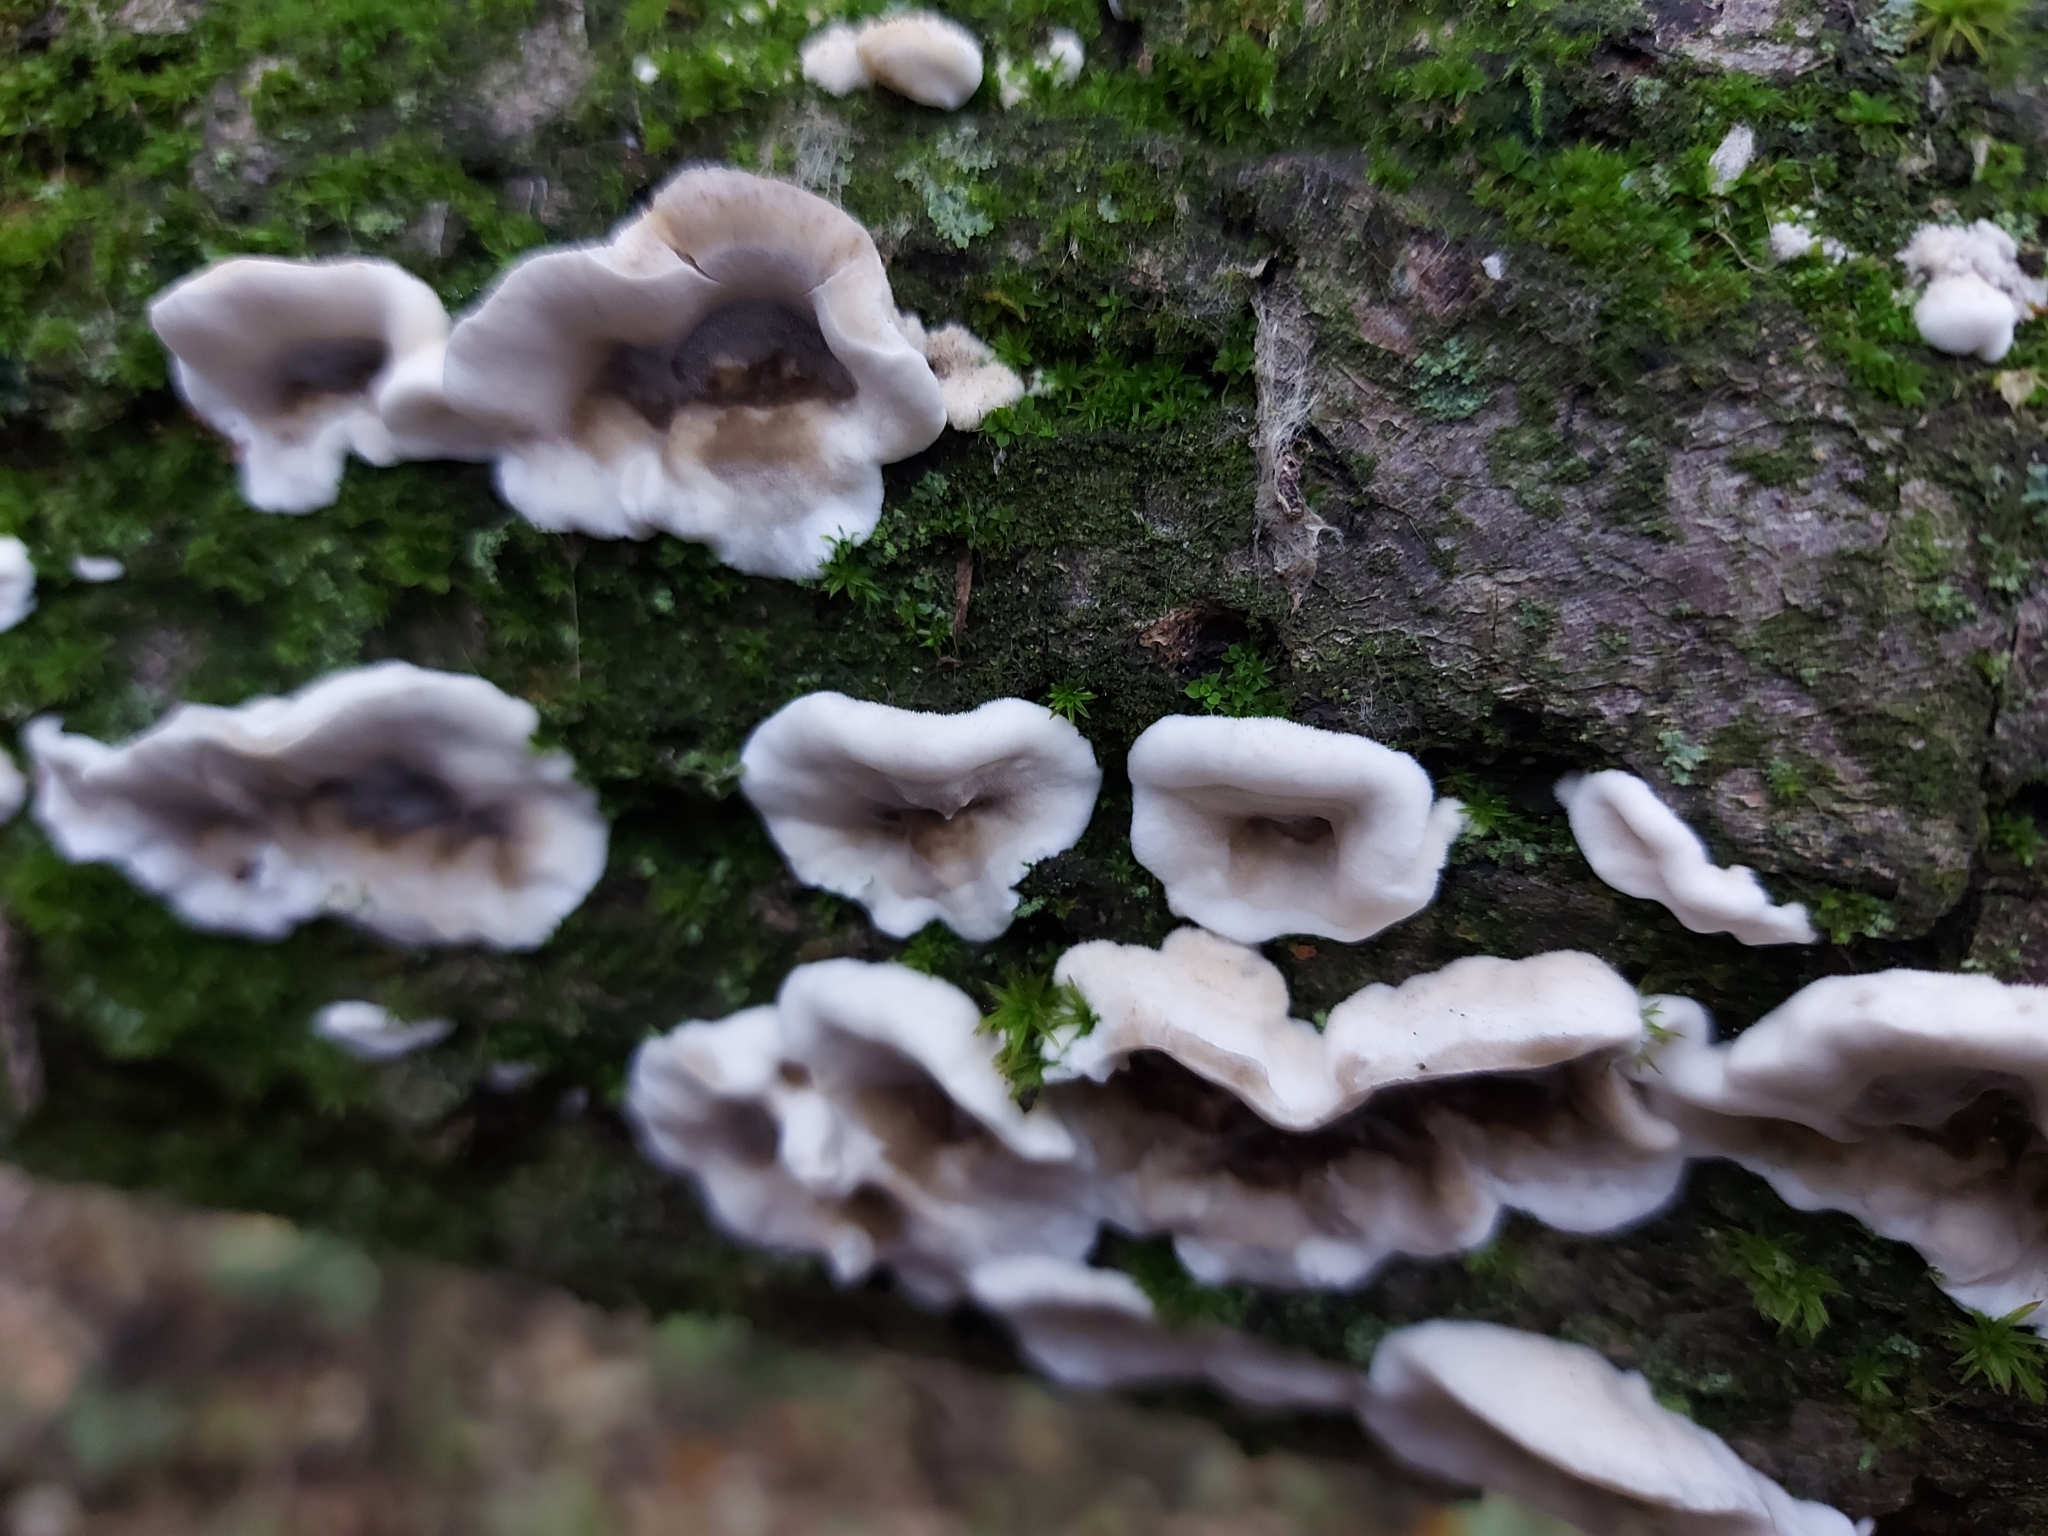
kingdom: Fungi
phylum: Basidiomycota
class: Agaricomycetes
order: Polyporales
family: Phanerochaetaceae
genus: Bjerkandera
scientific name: Bjerkandera adusta
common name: Smoky bracket
